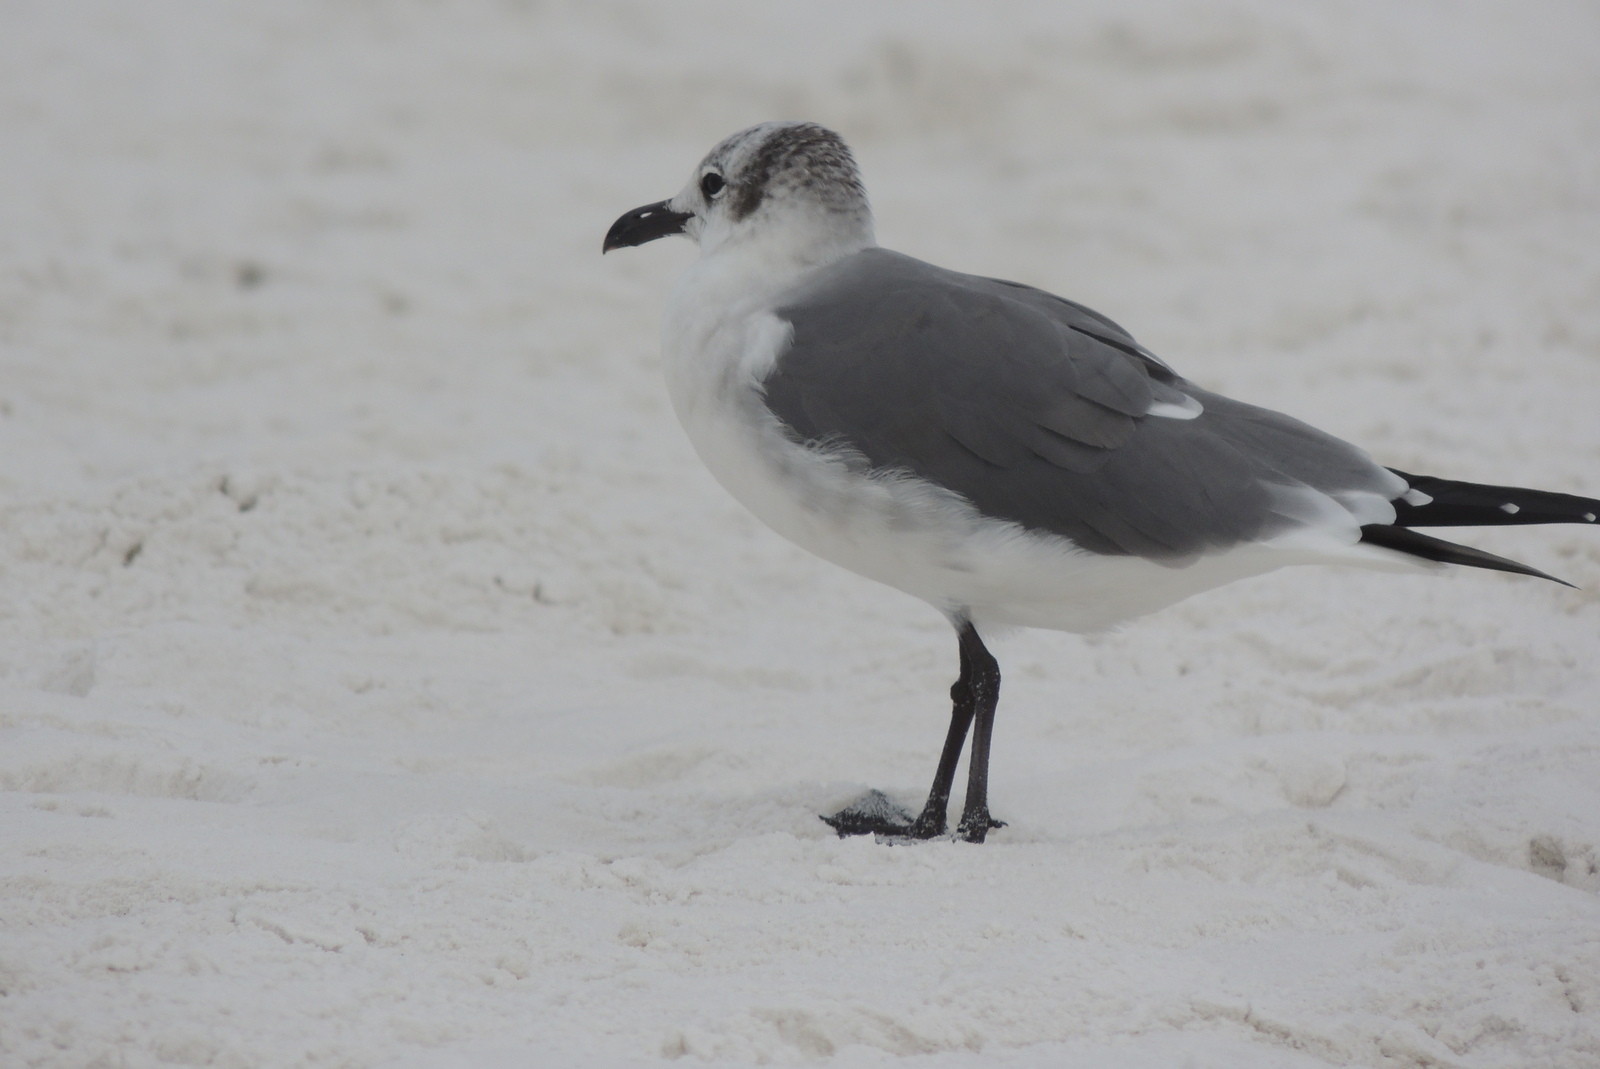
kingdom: Animalia
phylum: Chordata
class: Aves
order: Charadriiformes
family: Laridae
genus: Leucophaeus
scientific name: Leucophaeus atricilla
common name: Laughing gull
